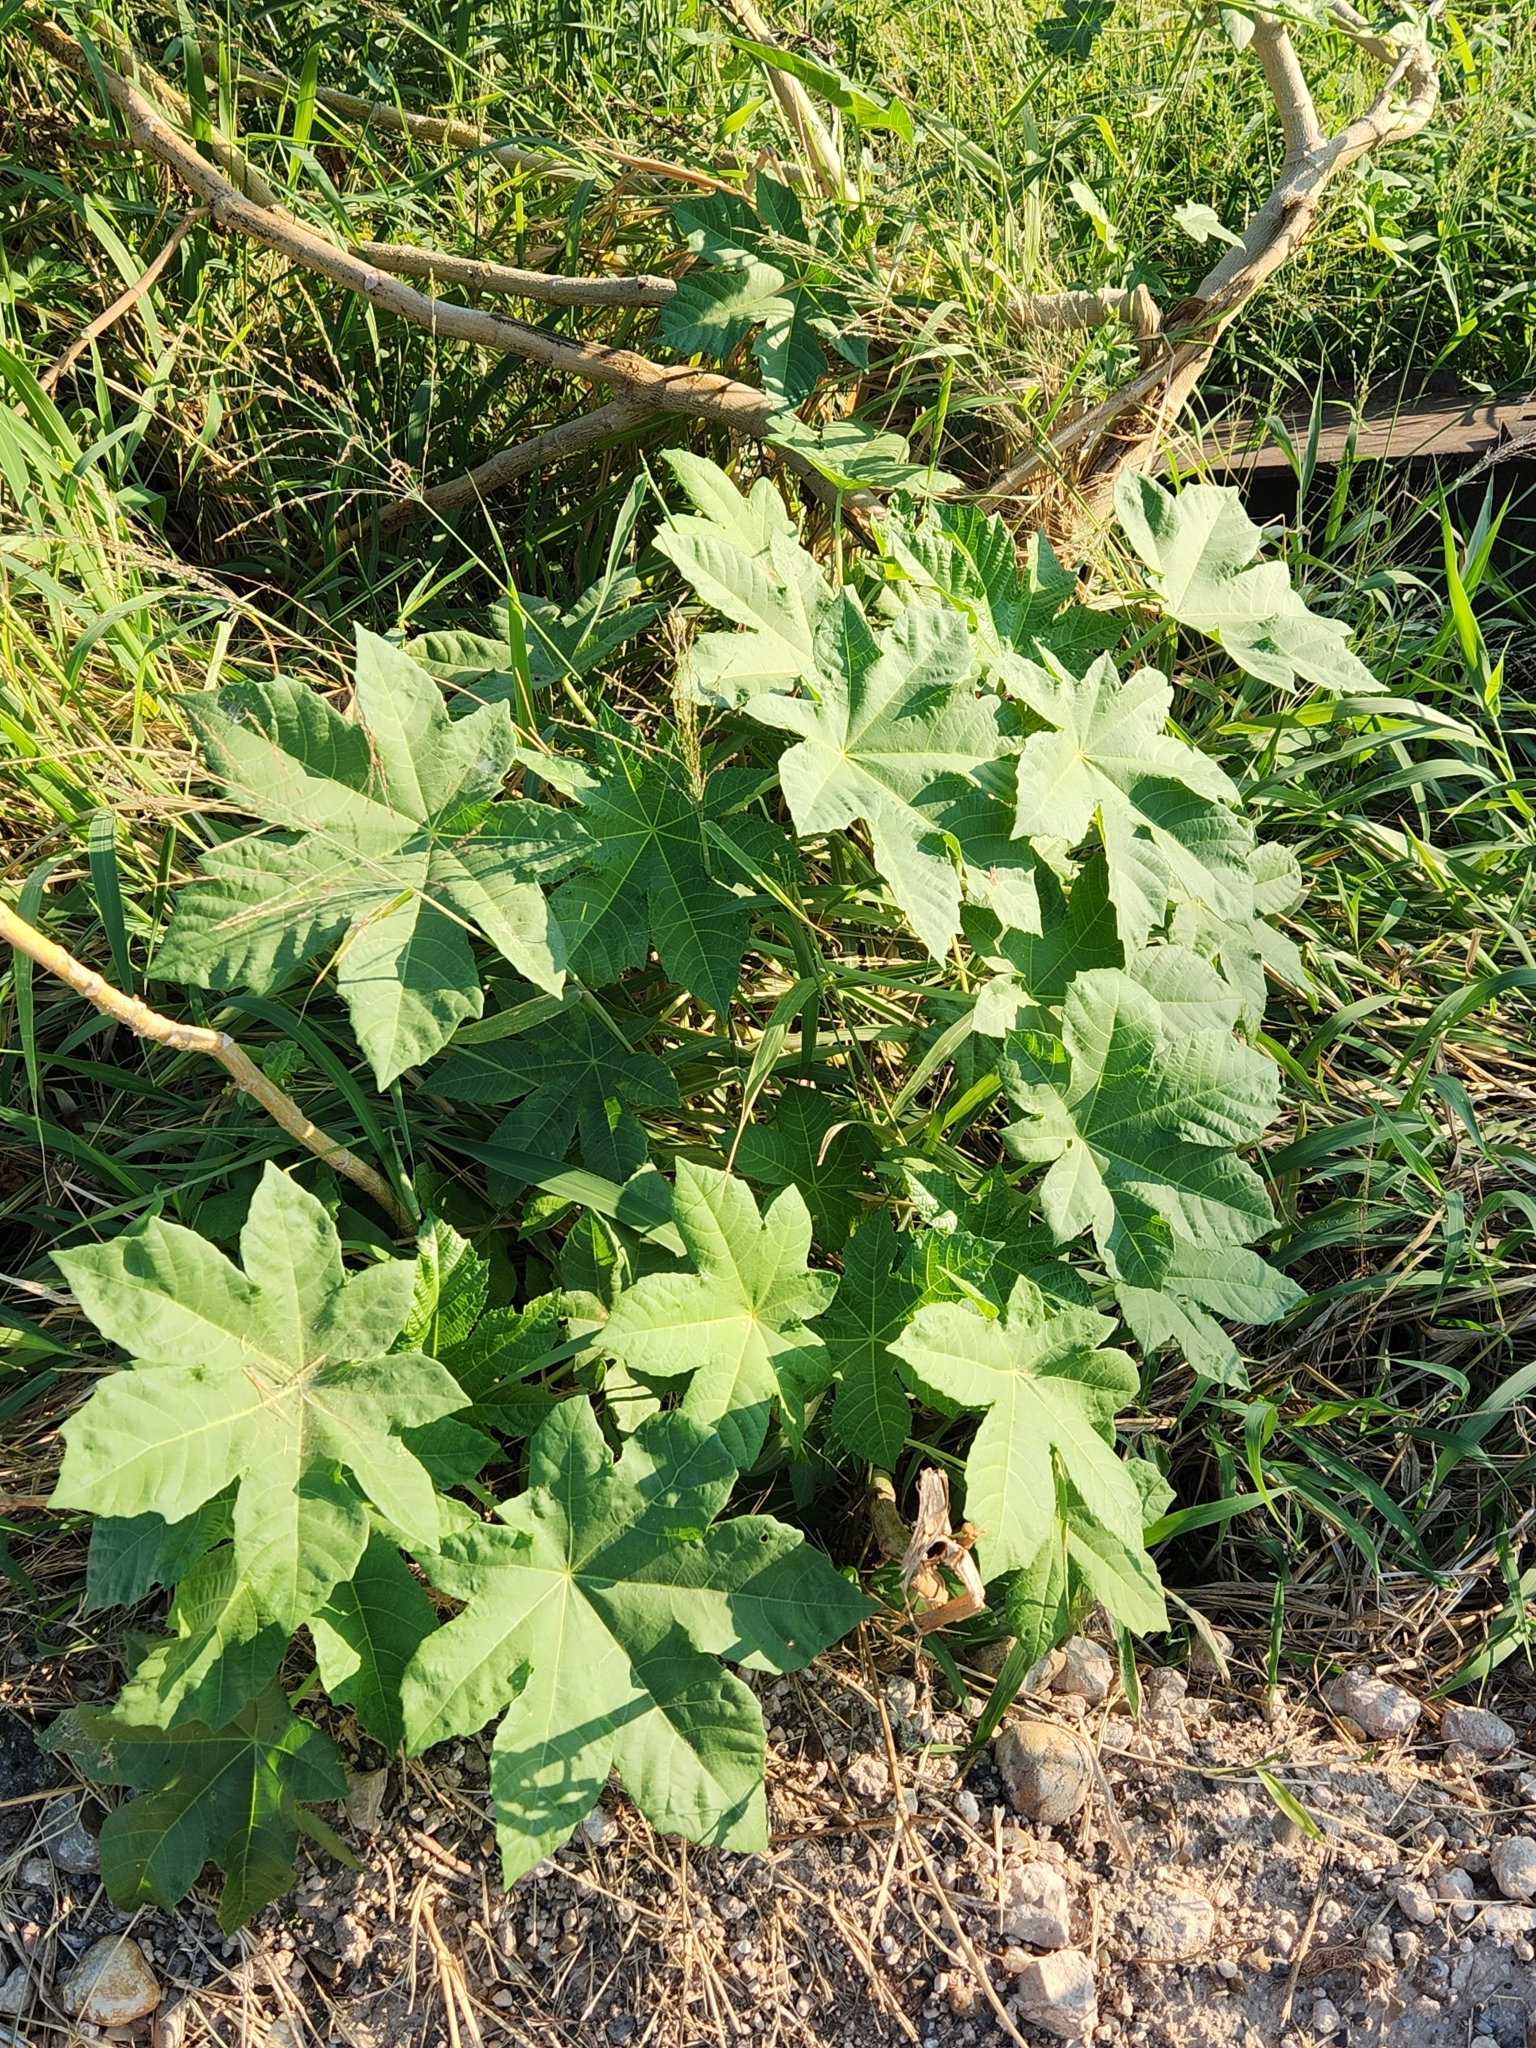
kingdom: Plantae
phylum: Tracheophyta
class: Magnoliopsida
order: Malpighiales
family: Euphorbiaceae
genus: Ricinus
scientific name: Ricinus communis
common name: Castor-oil-plant
